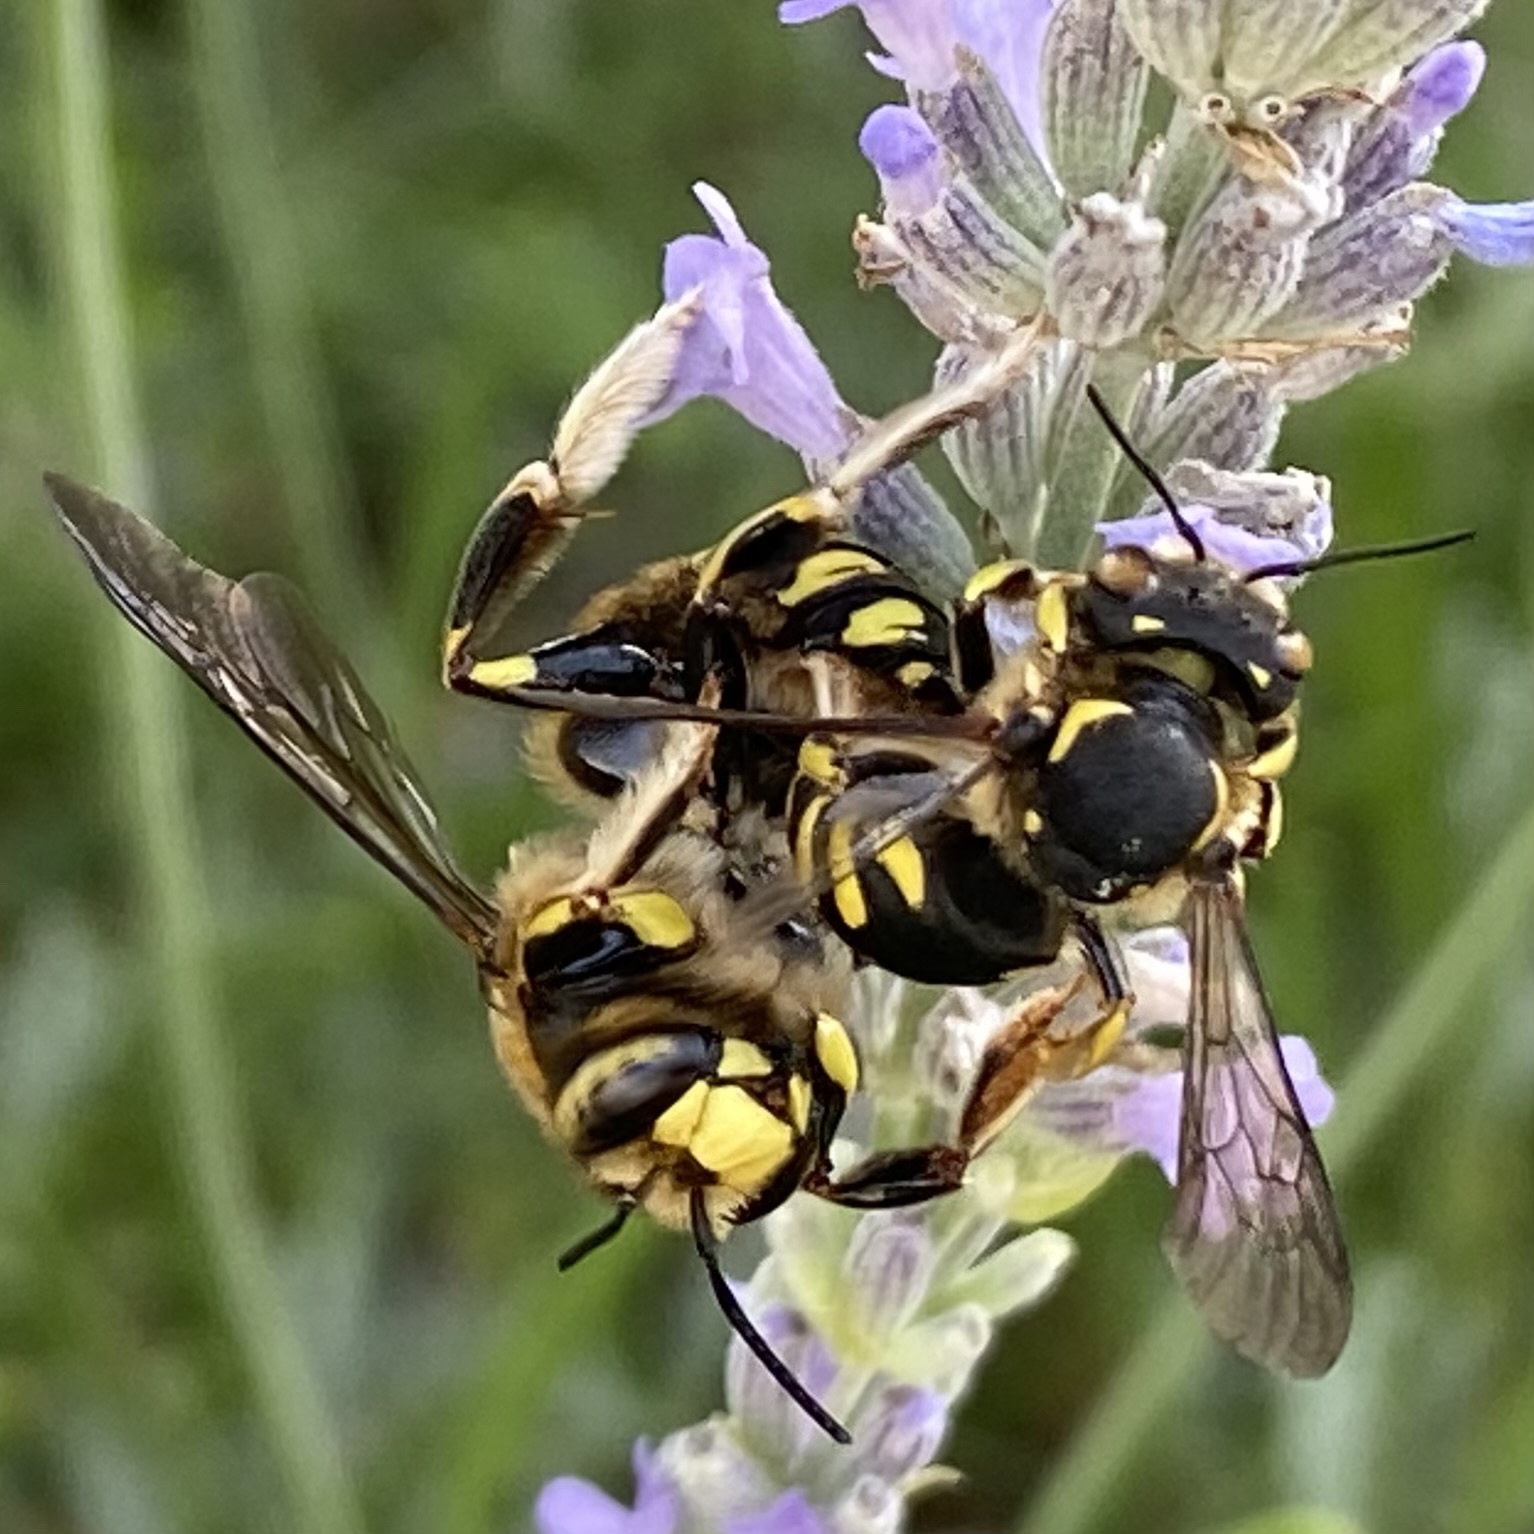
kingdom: Animalia
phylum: Arthropoda
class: Insecta
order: Hymenoptera
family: Megachilidae
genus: Anthidium
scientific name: Anthidium florentinum
